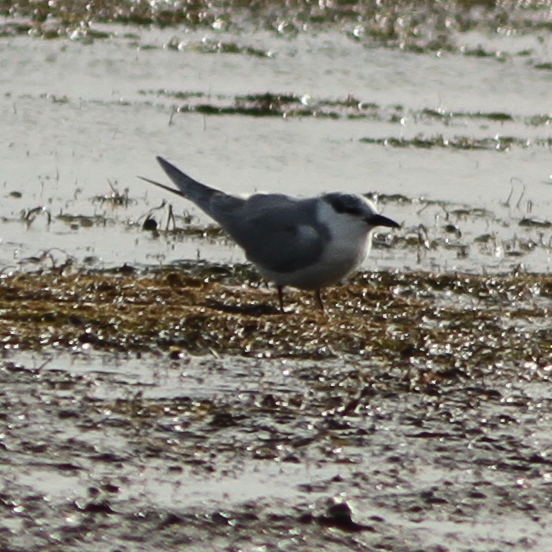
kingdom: Animalia
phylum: Chordata
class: Aves
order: Charadriiformes
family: Laridae
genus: Chlidonias
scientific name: Chlidonias hybrida
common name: Whiskered tern
